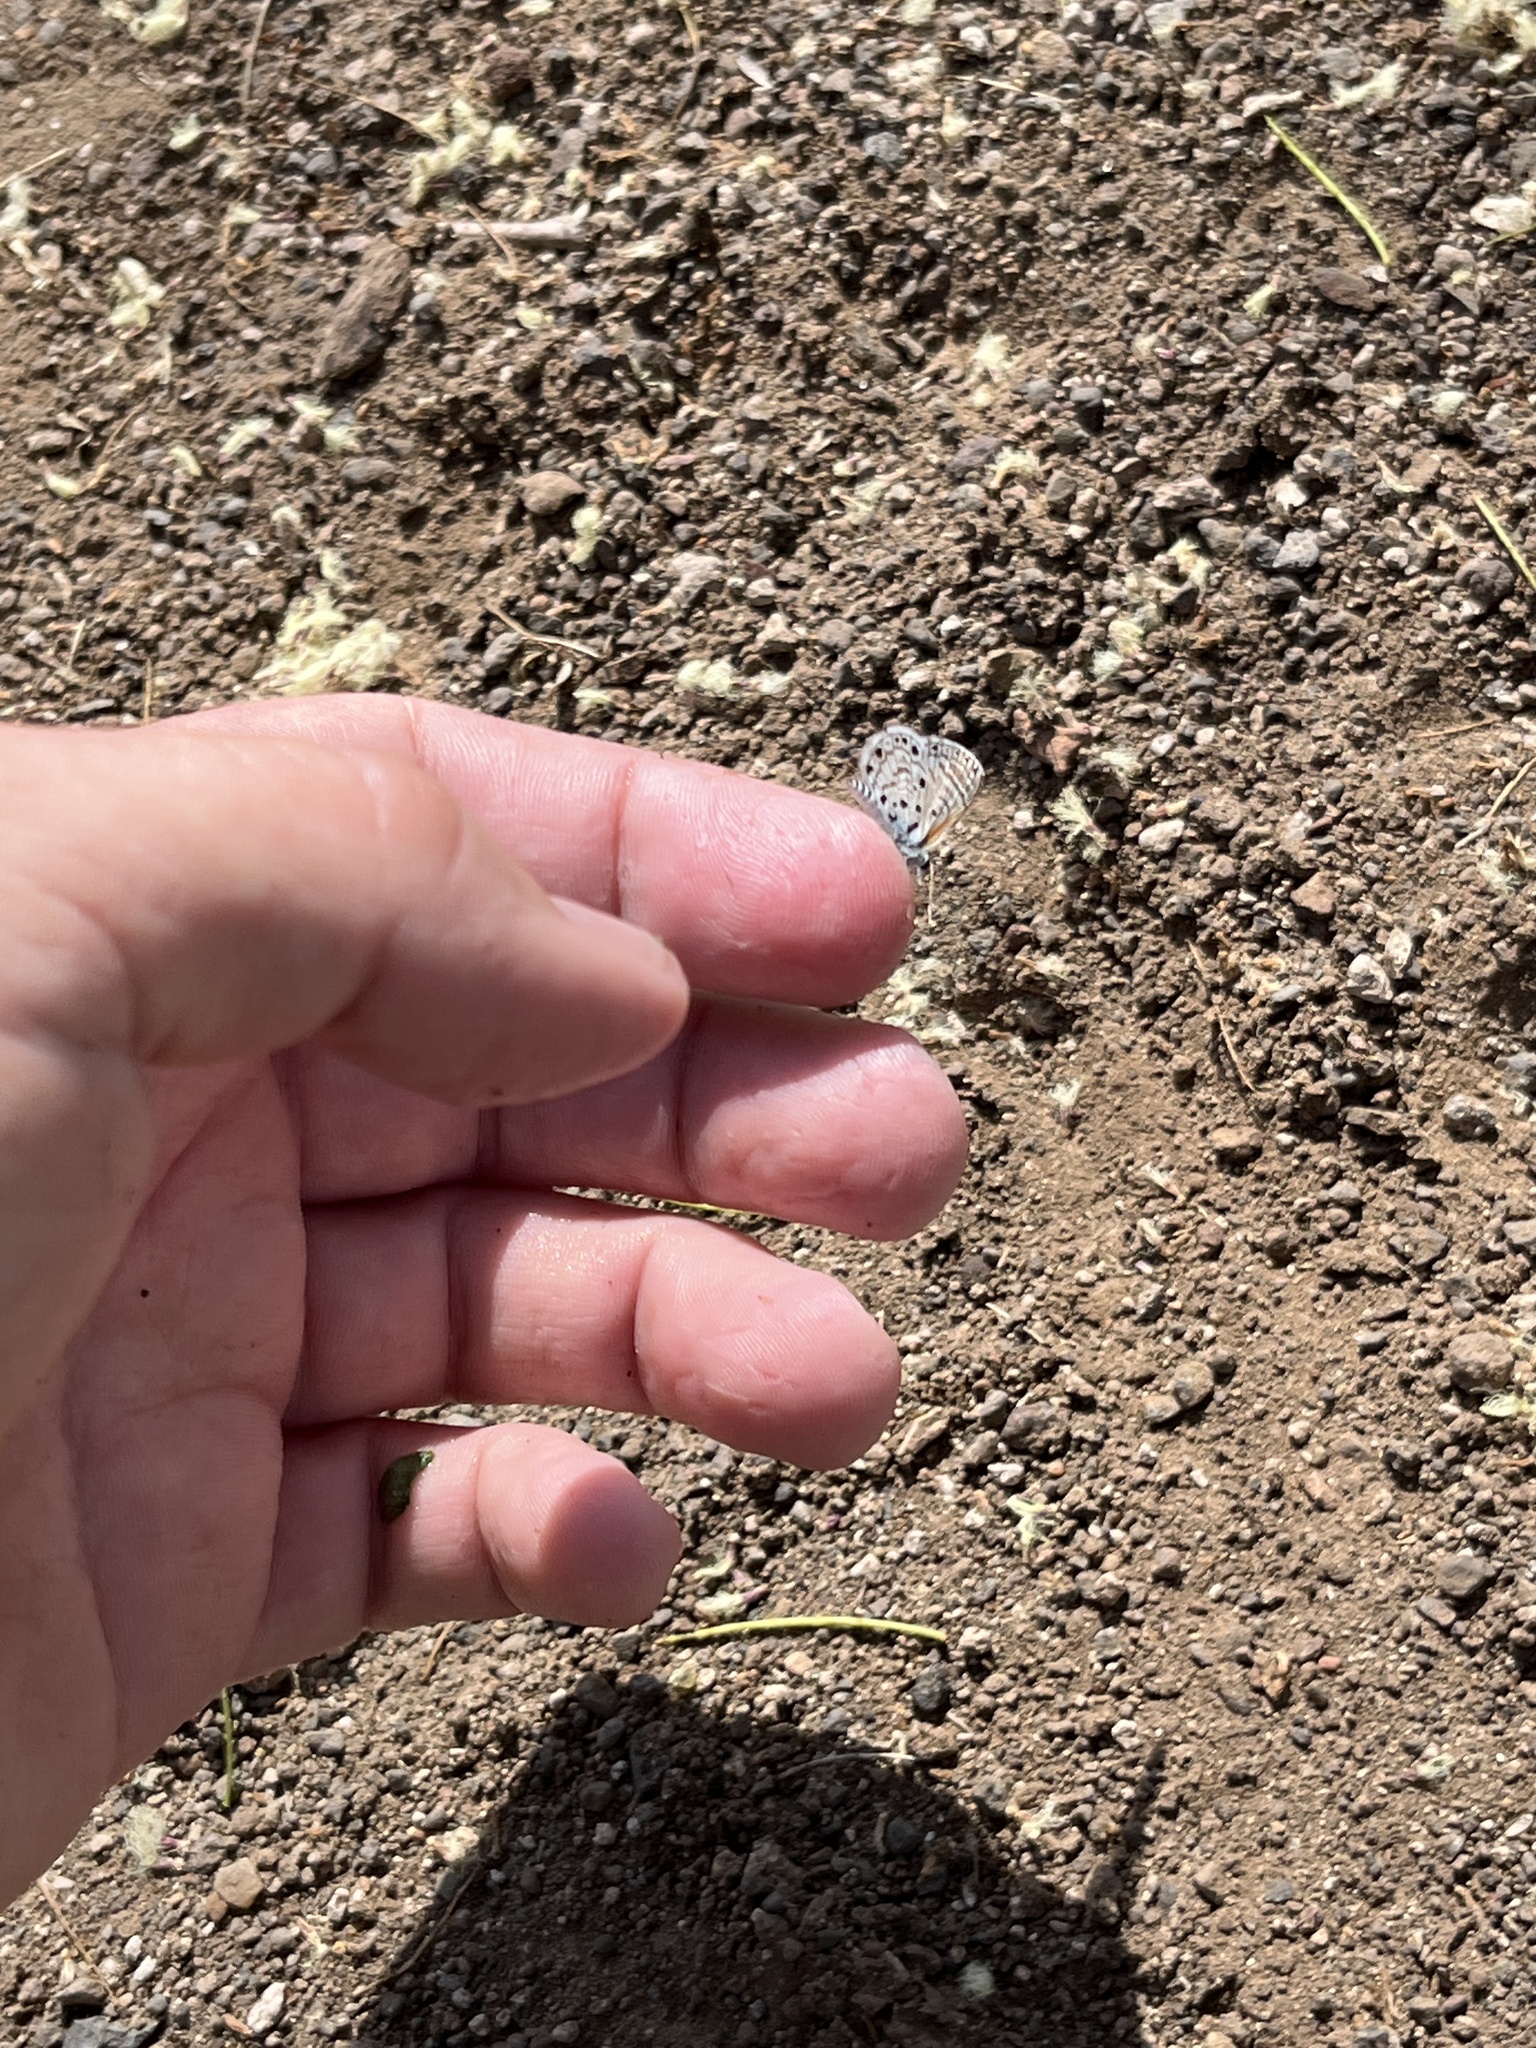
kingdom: Animalia
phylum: Arthropoda
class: Insecta
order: Lepidoptera
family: Lycaenidae
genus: Azanus
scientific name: Azanus jesous
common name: African babul blue
